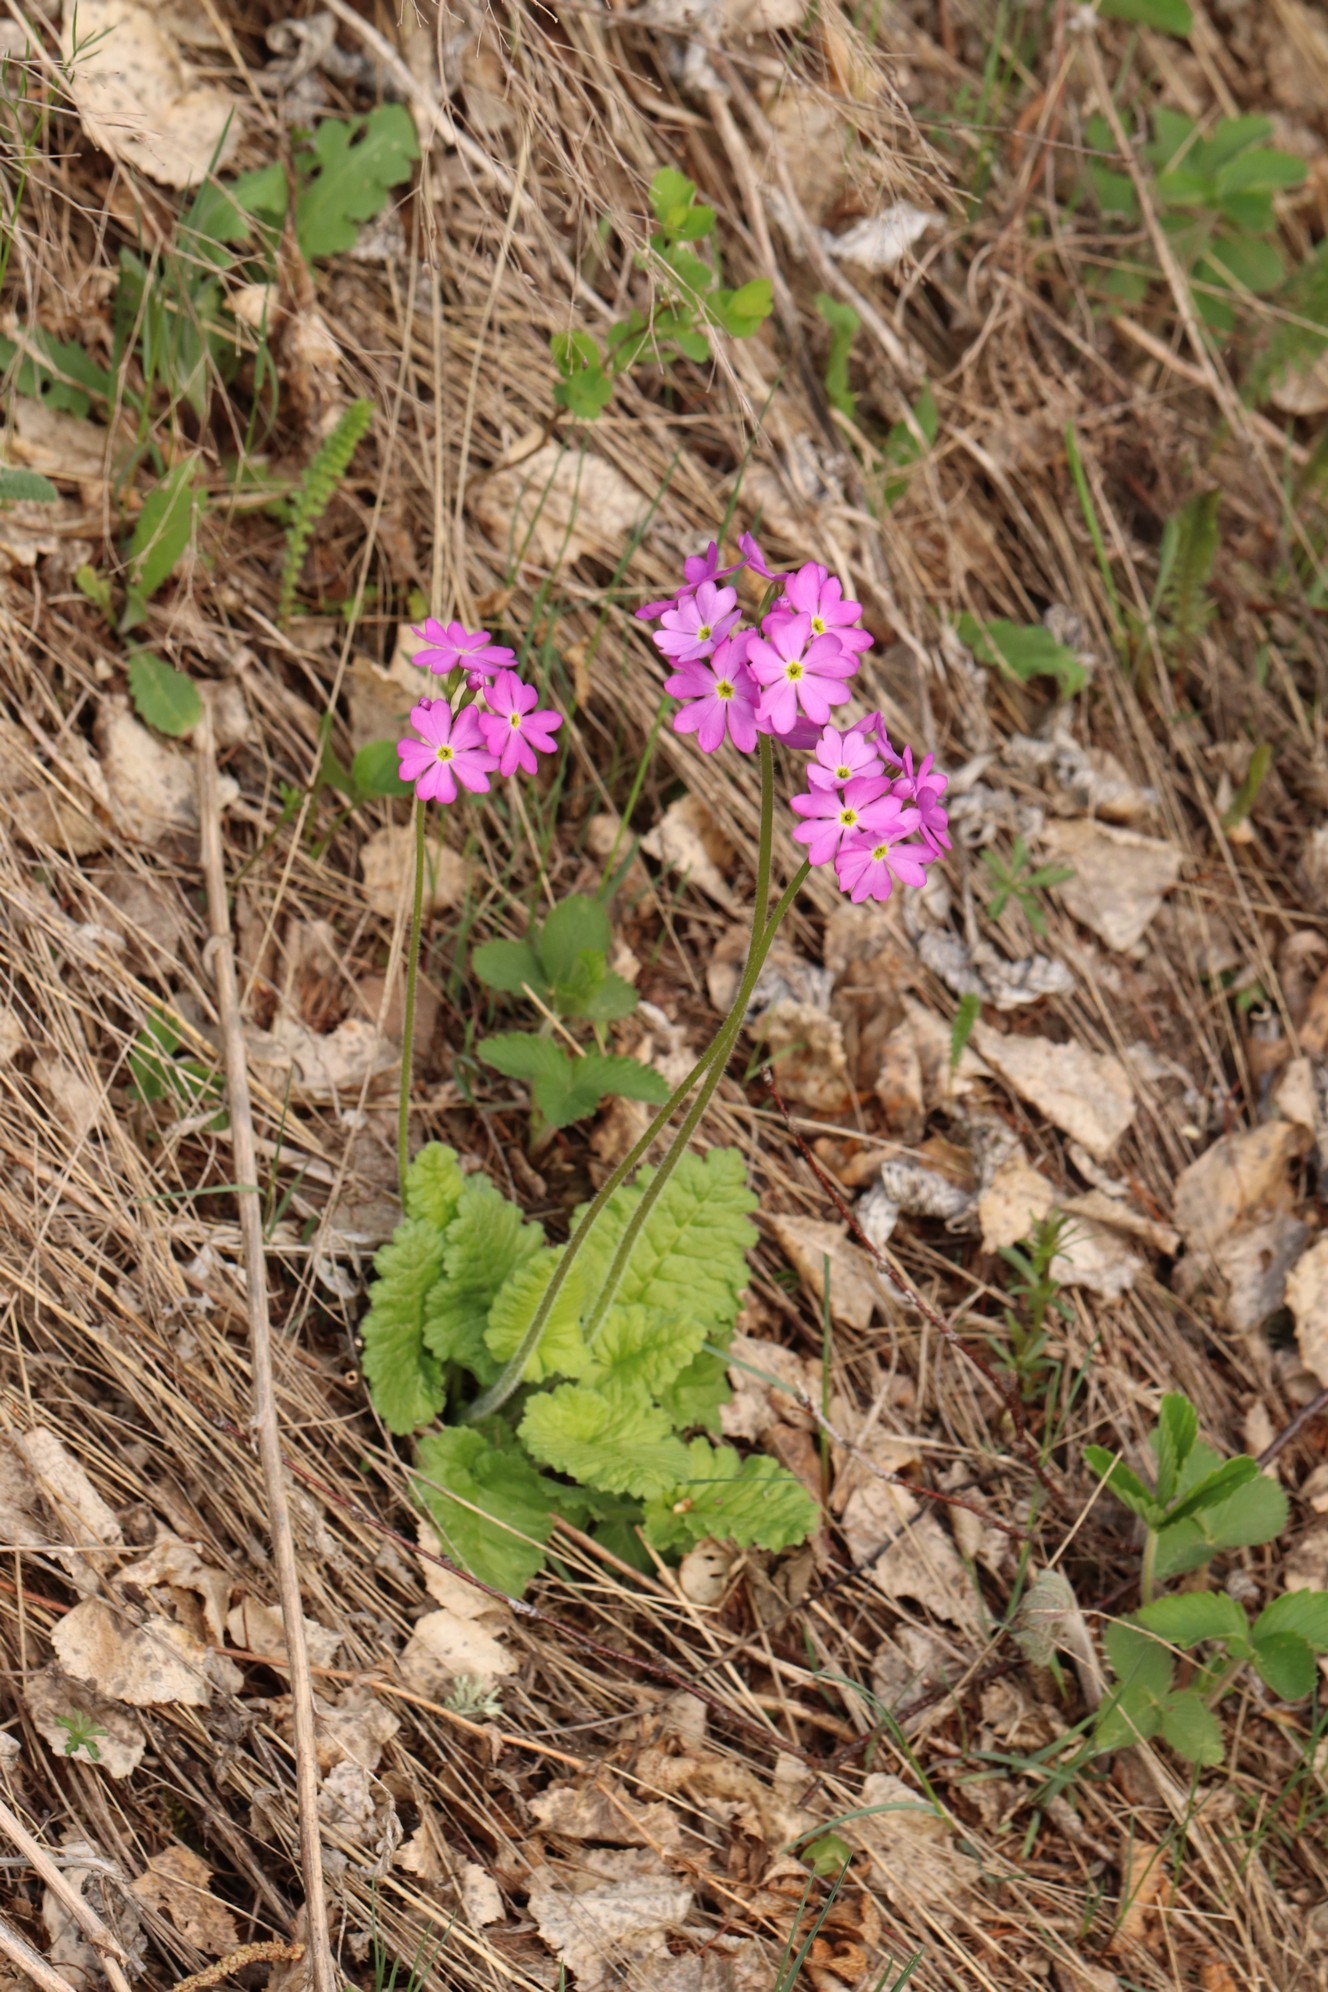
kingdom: Plantae
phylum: Tracheophyta
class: Magnoliopsida
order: Ericales
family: Primulaceae
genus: Primula
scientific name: Primula cortusoides
